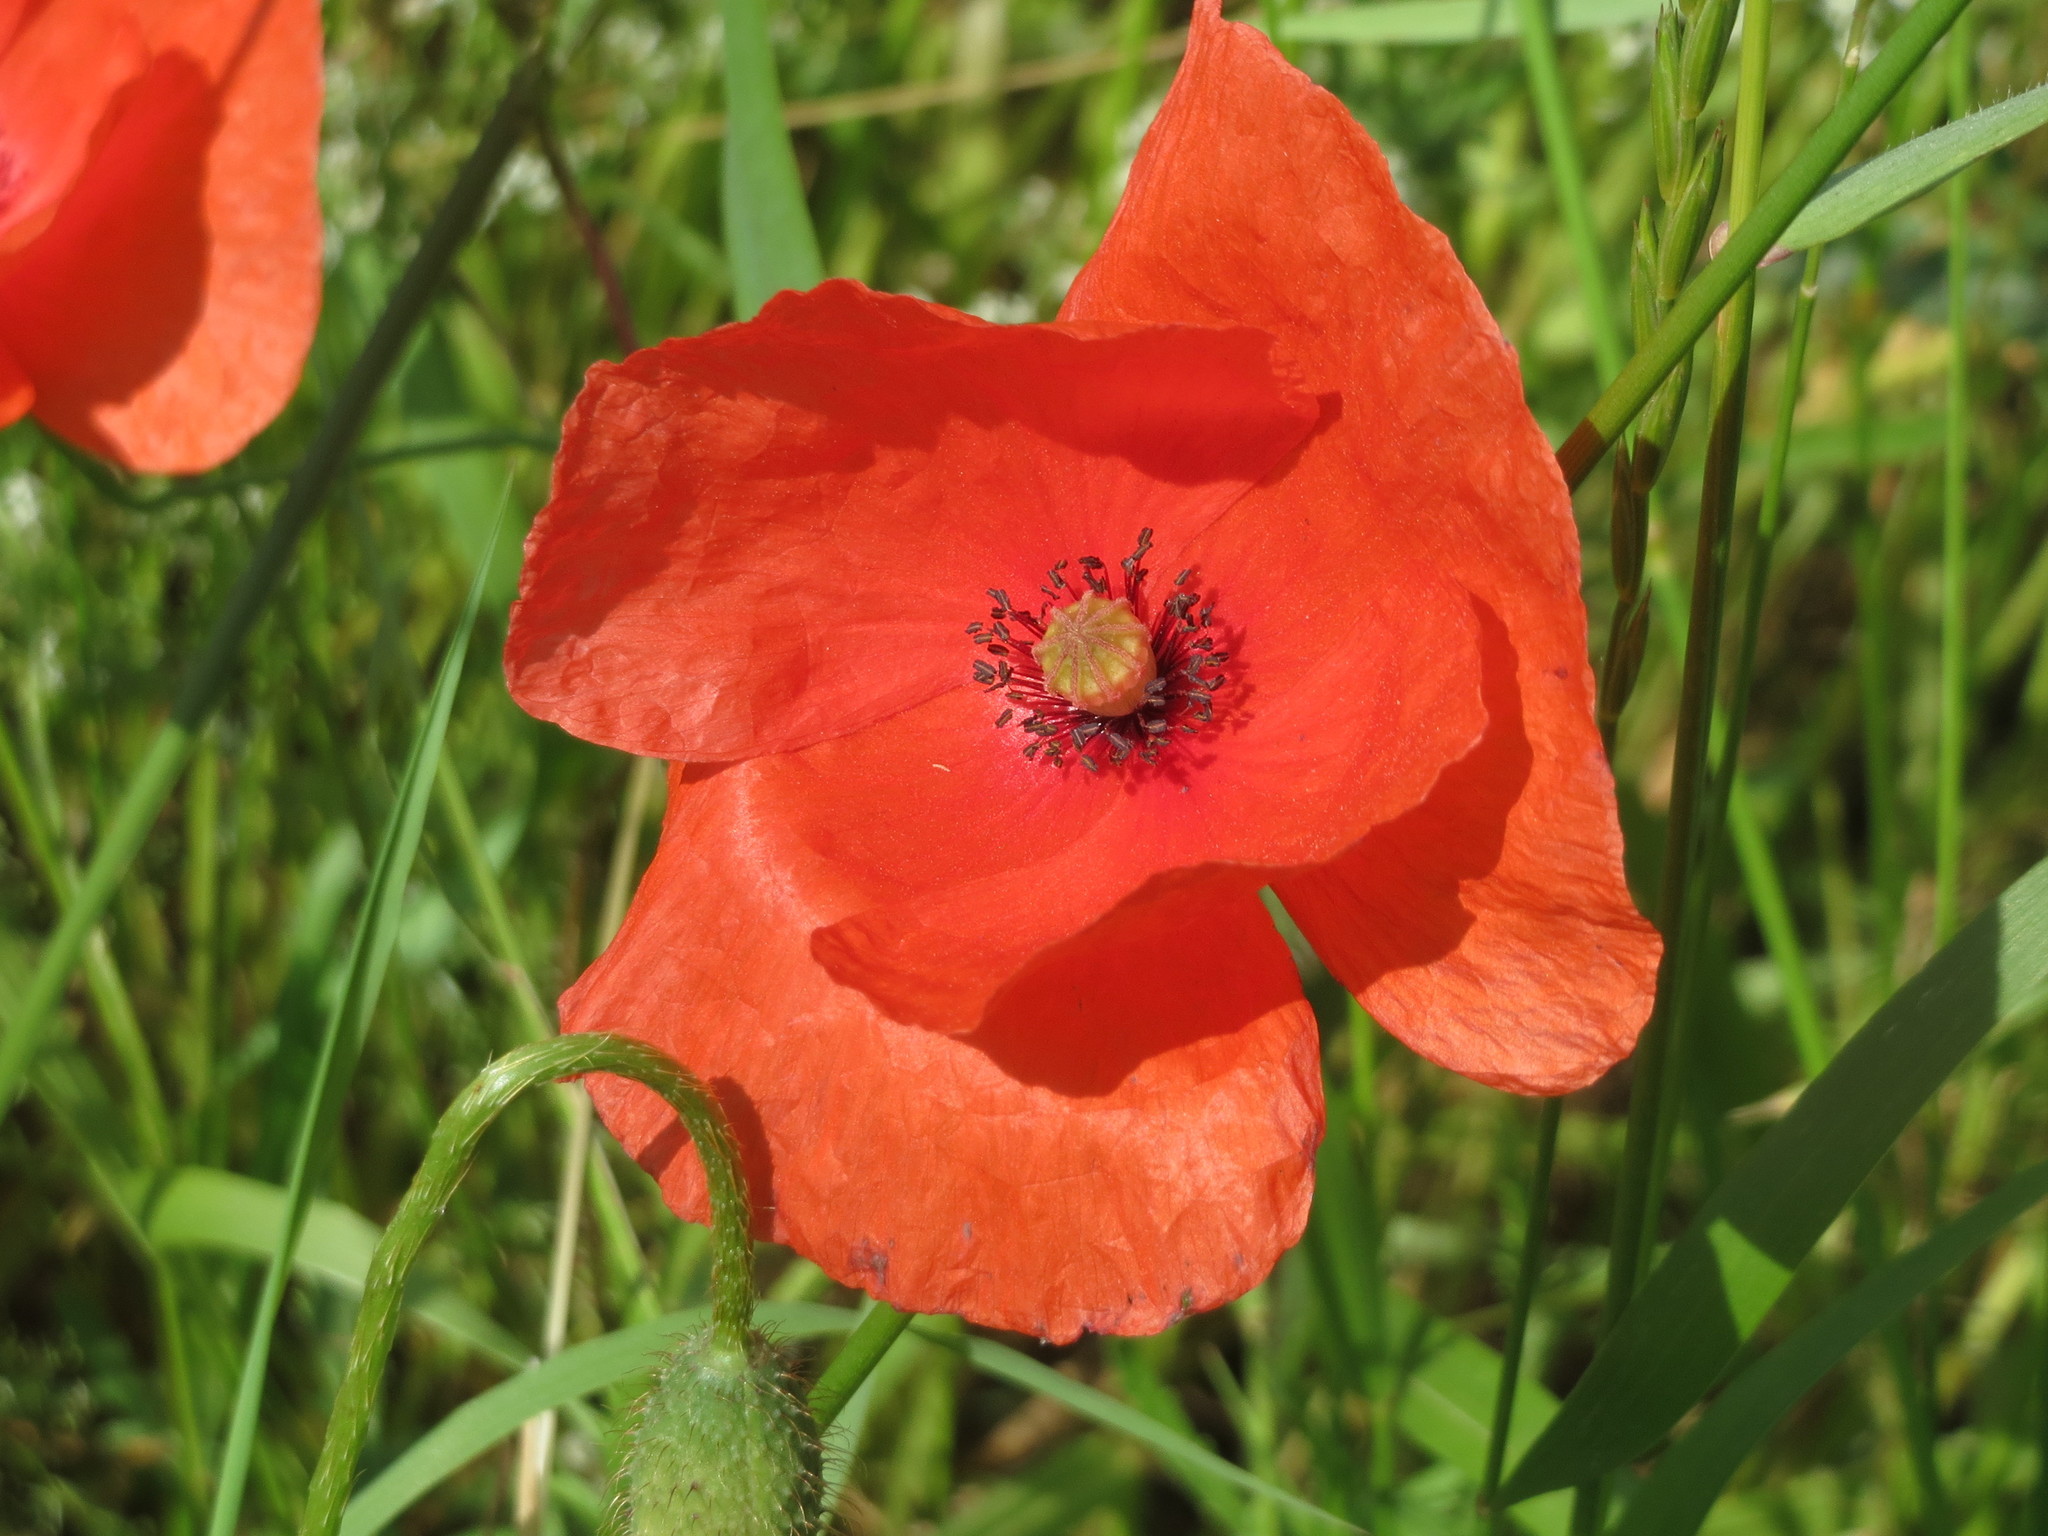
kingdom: Plantae
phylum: Tracheophyta
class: Magnoliopsida
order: Ranunculales
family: Papaveraceae
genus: Papaver
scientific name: Papaver rhoeas
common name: Corn poppy
